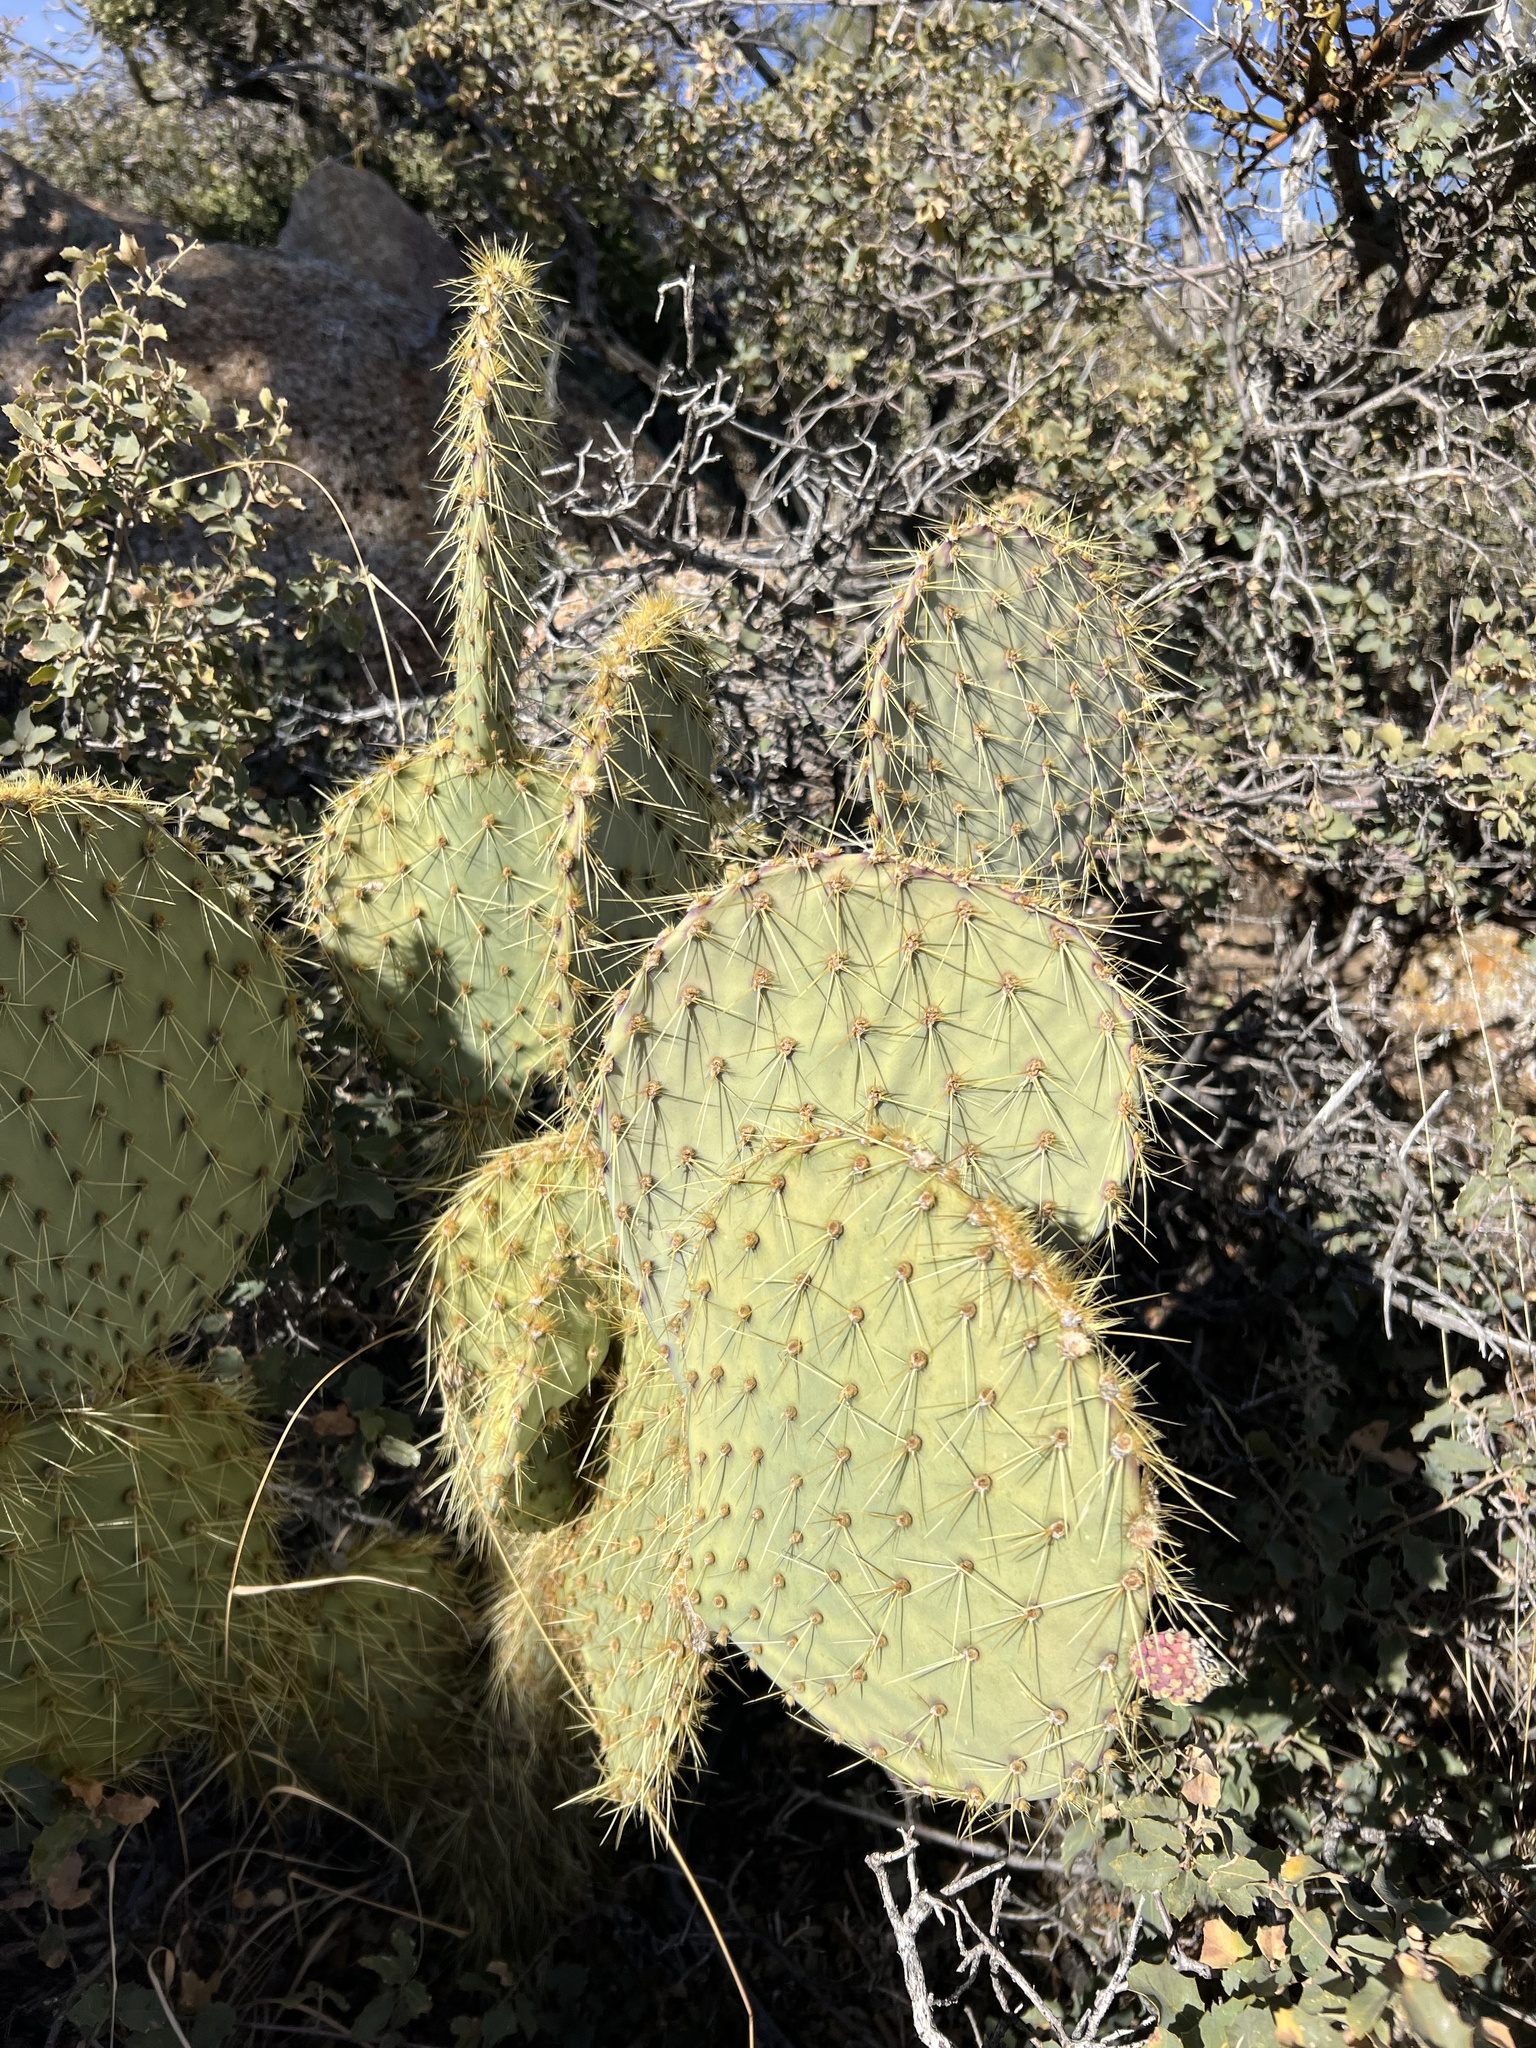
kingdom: Plantae
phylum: Tracheophyta
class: Magnoliopsida
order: Caryophyllales
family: Cactaceae
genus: Opuntia
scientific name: Opuntia chlorotica
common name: Dollar-joint prickly-pear
